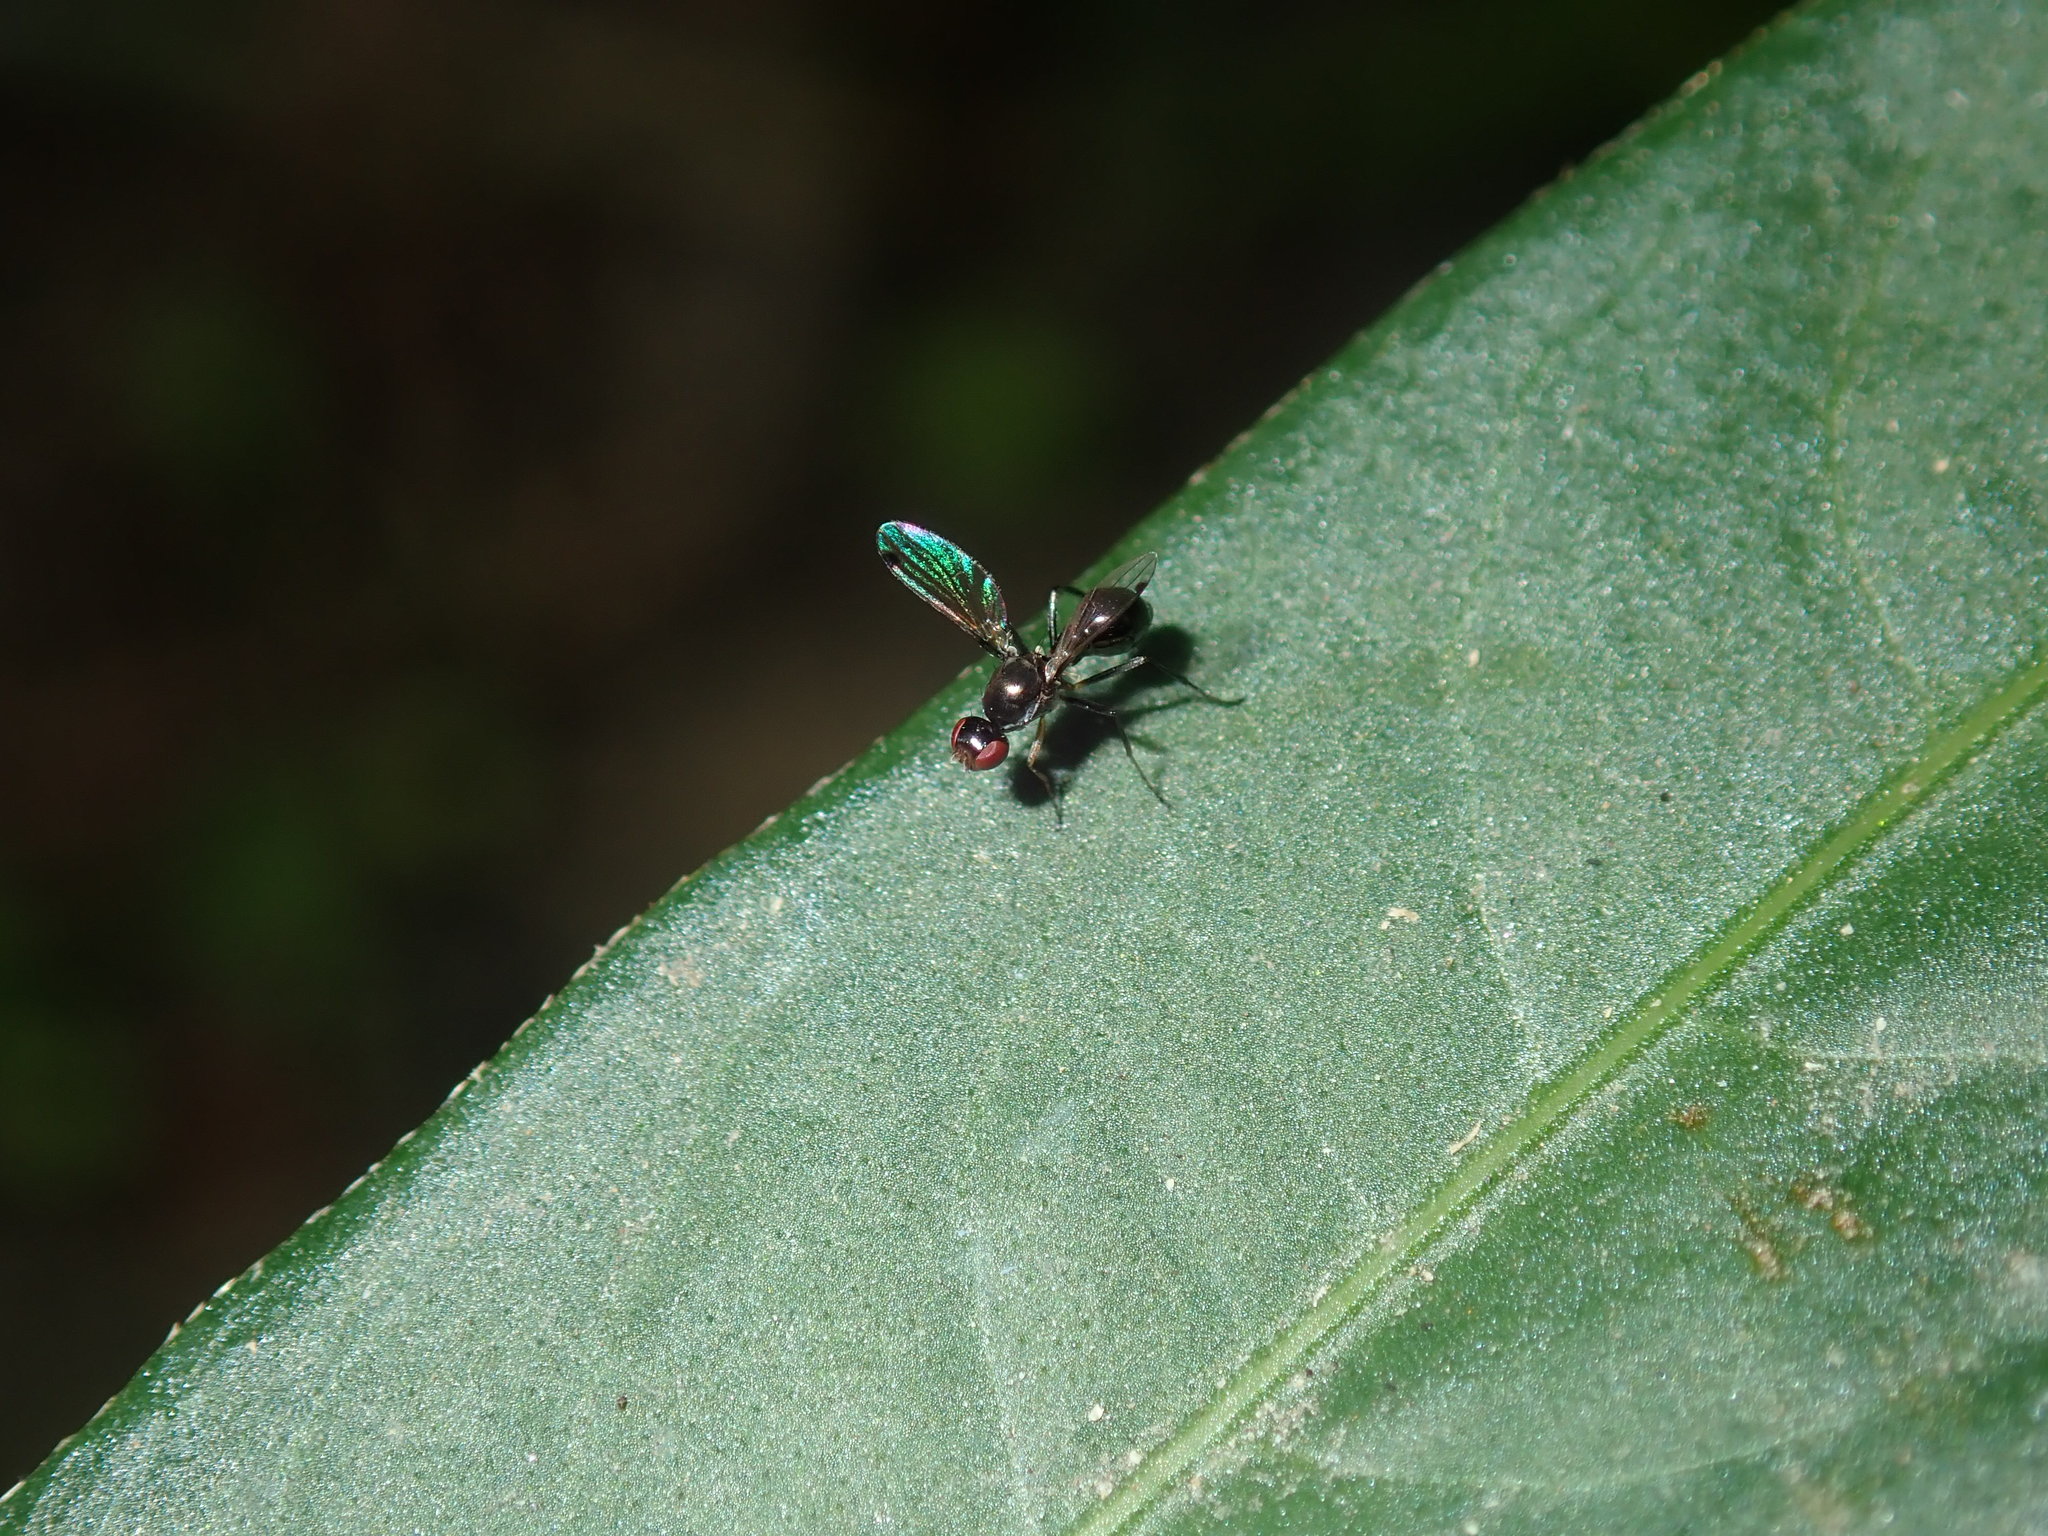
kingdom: Animalia
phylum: Arthropoda
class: Insecta
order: Diptera
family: Sepsidae
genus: Parapalaeosepsis
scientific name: Parapalaeosepsis plebeia
